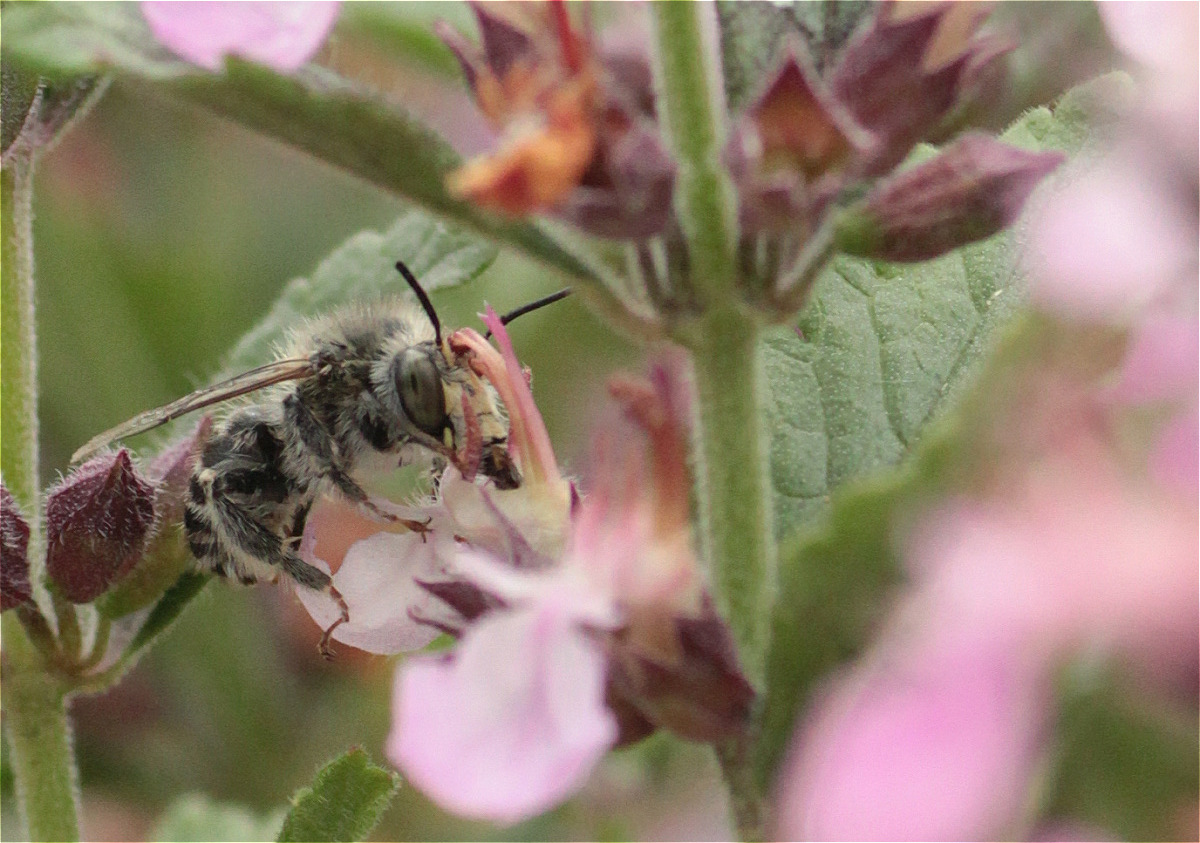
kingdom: Animalia
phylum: Arthropoda
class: Insecta
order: Hymenoptera
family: Apidae
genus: Anthophora
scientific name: Anthophora quadrimaculata
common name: Four-banded flower bee
